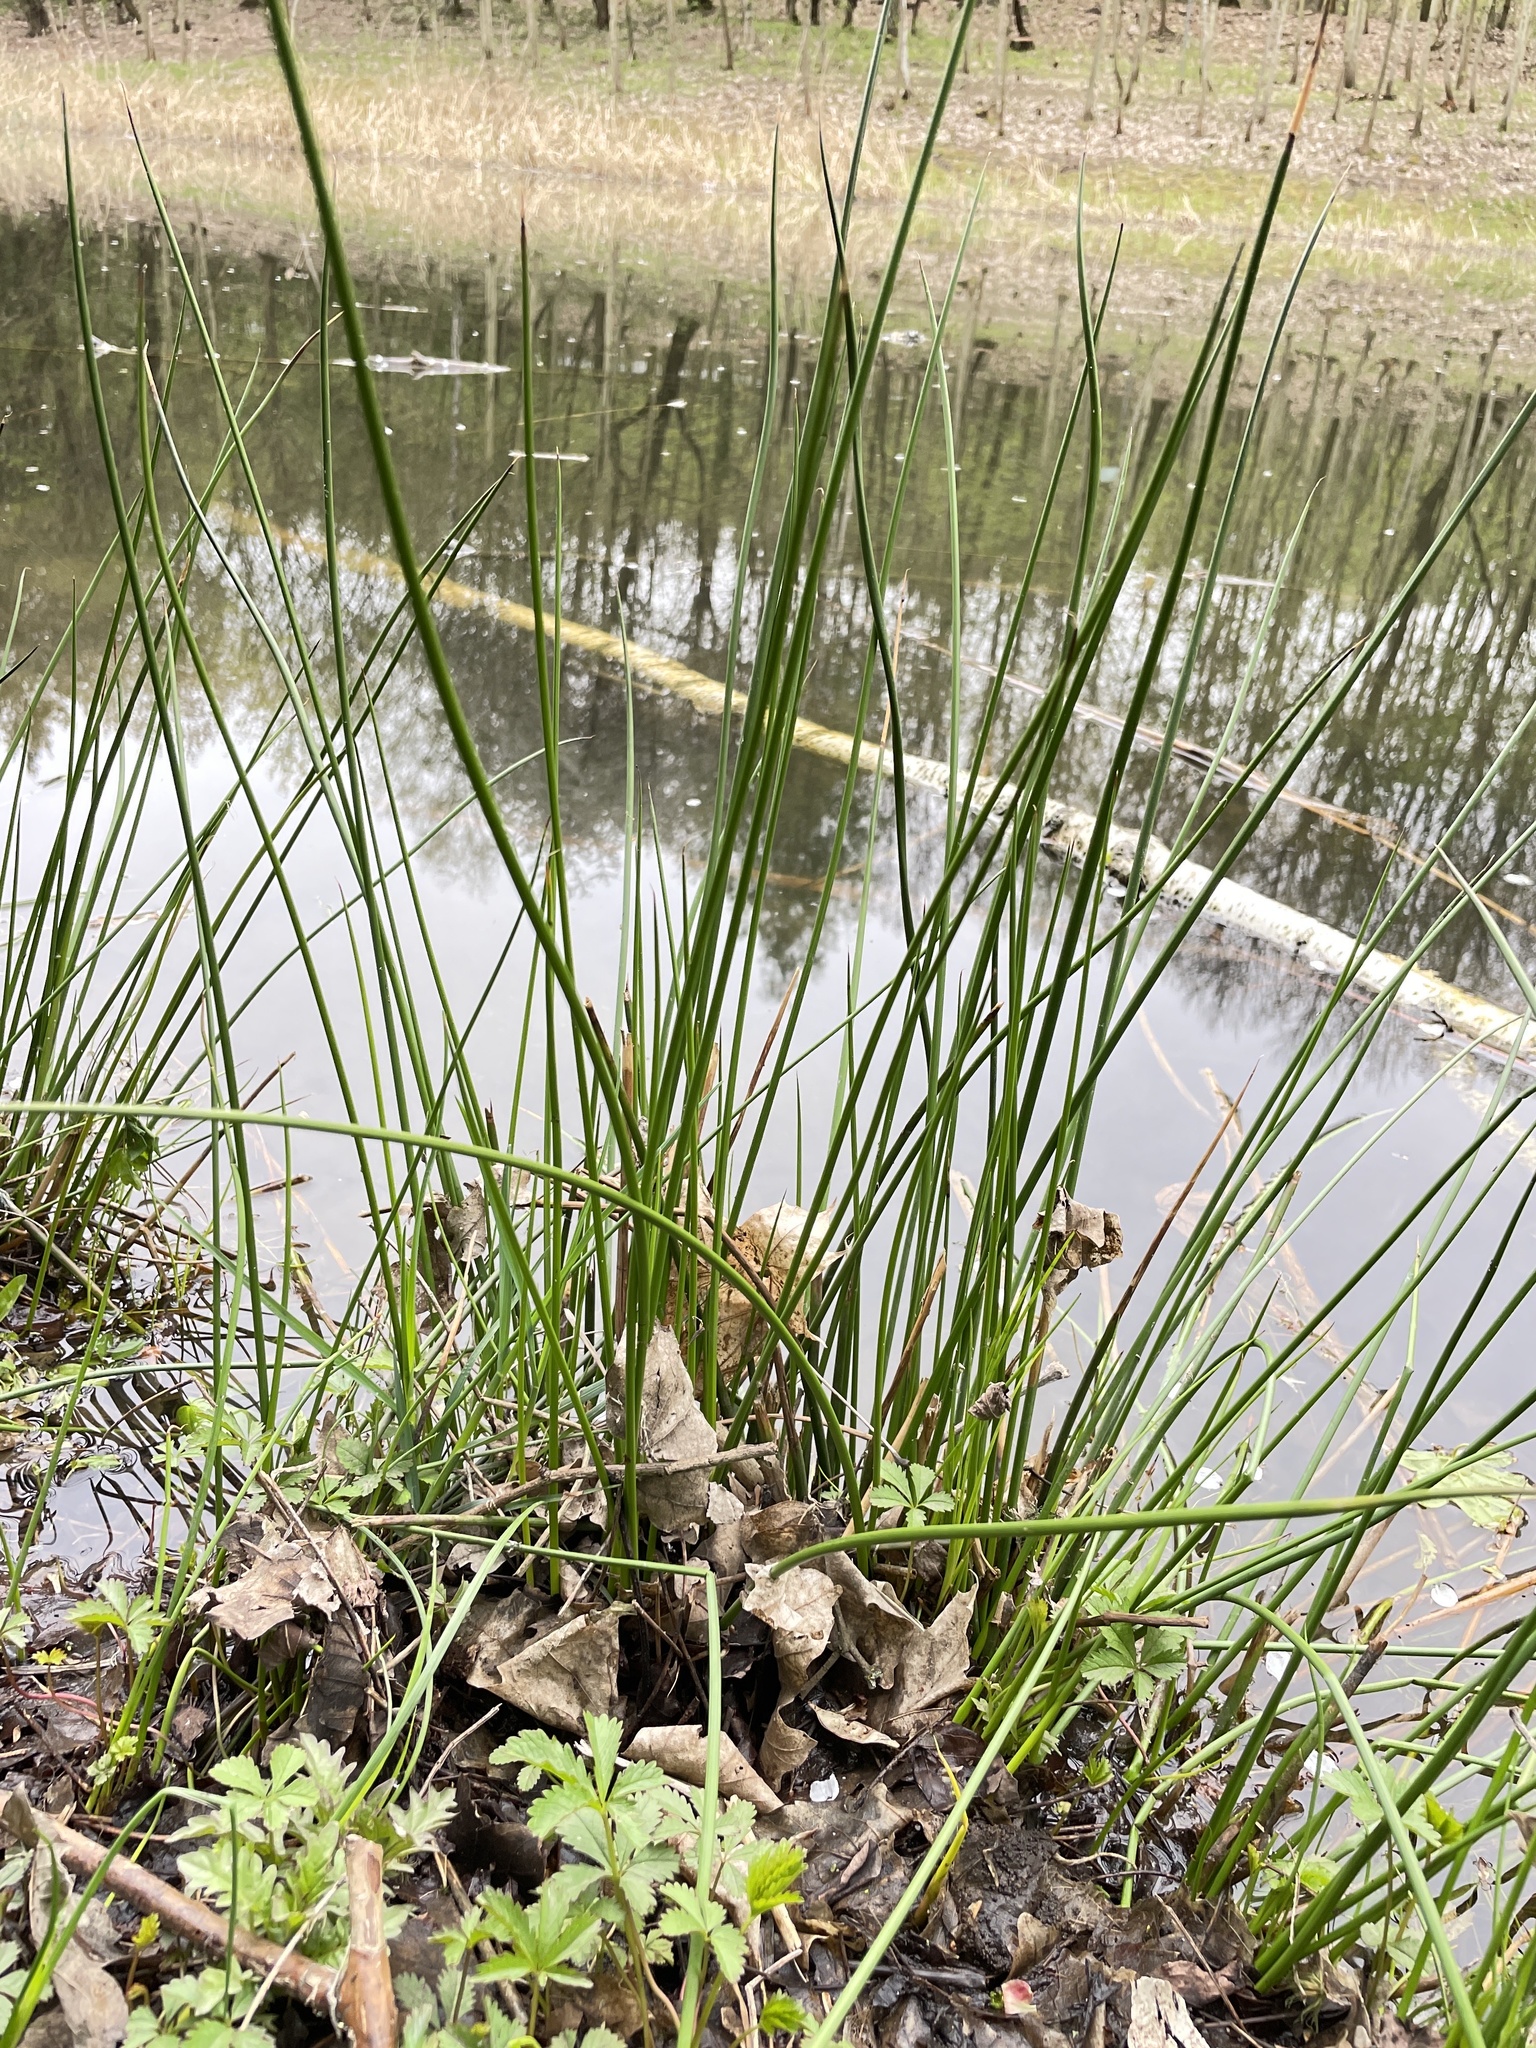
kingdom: Plantae
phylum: Tracheophyta
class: Liliopsida
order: Poales
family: Juncaceae
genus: Juncus
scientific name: Juncus effusus
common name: Soft rush
